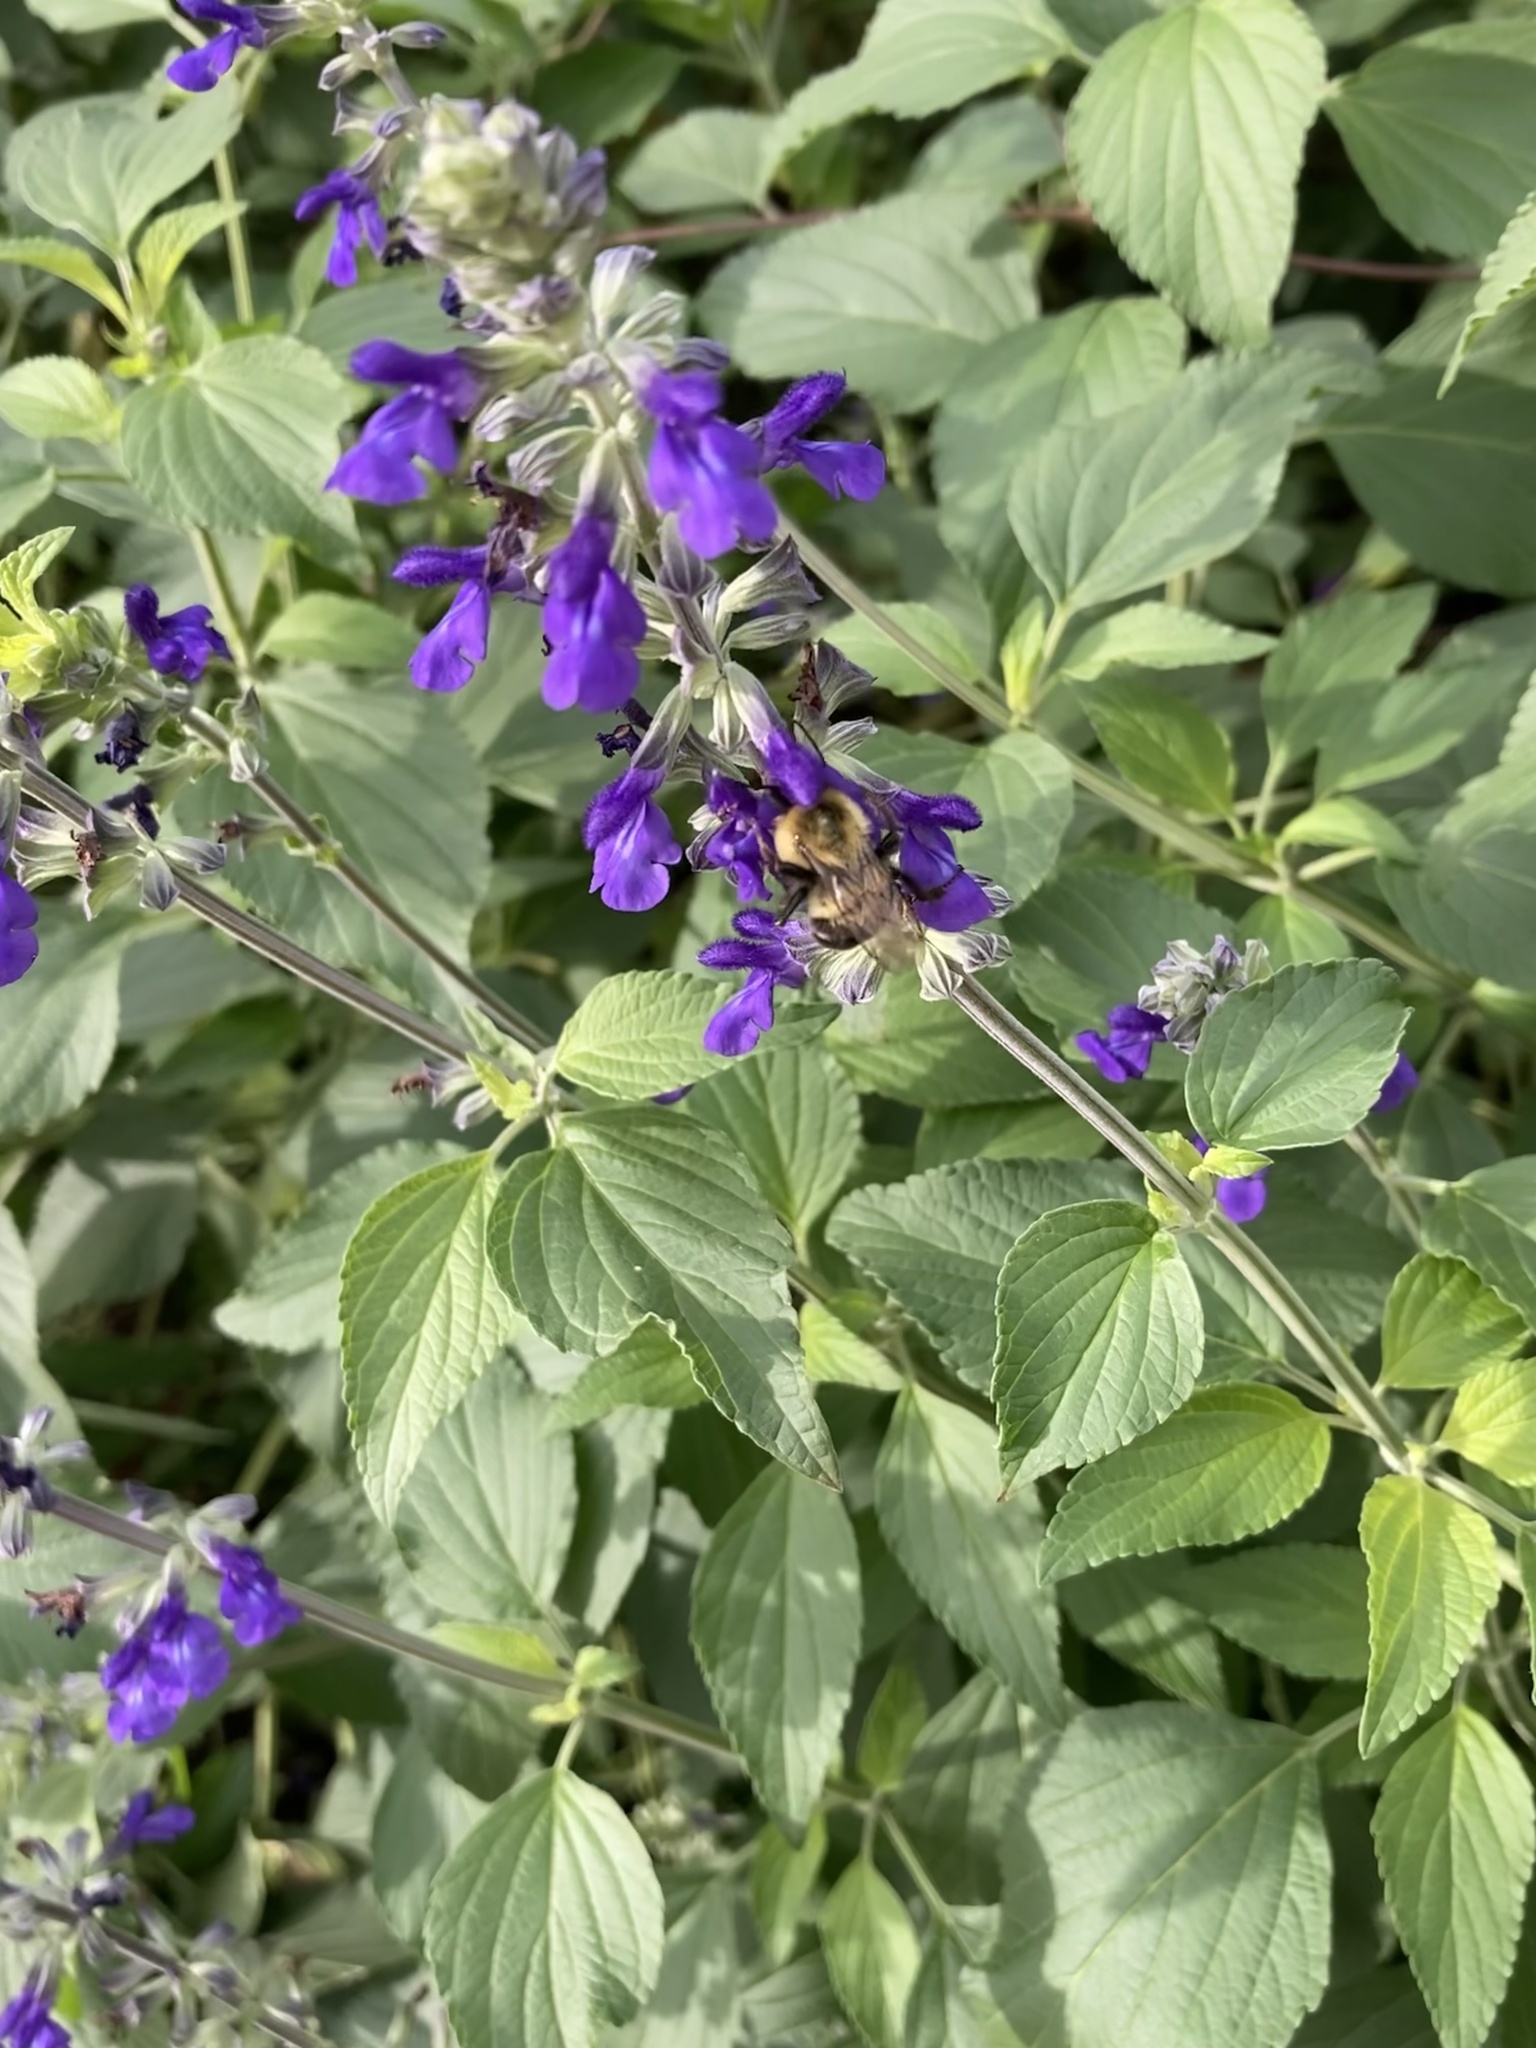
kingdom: Animalia
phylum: Arthropoda
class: Insecta
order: Hymenoptera
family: Apidae
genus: Bombus
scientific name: Bombus impatiens
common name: Common eastern bumble bee
